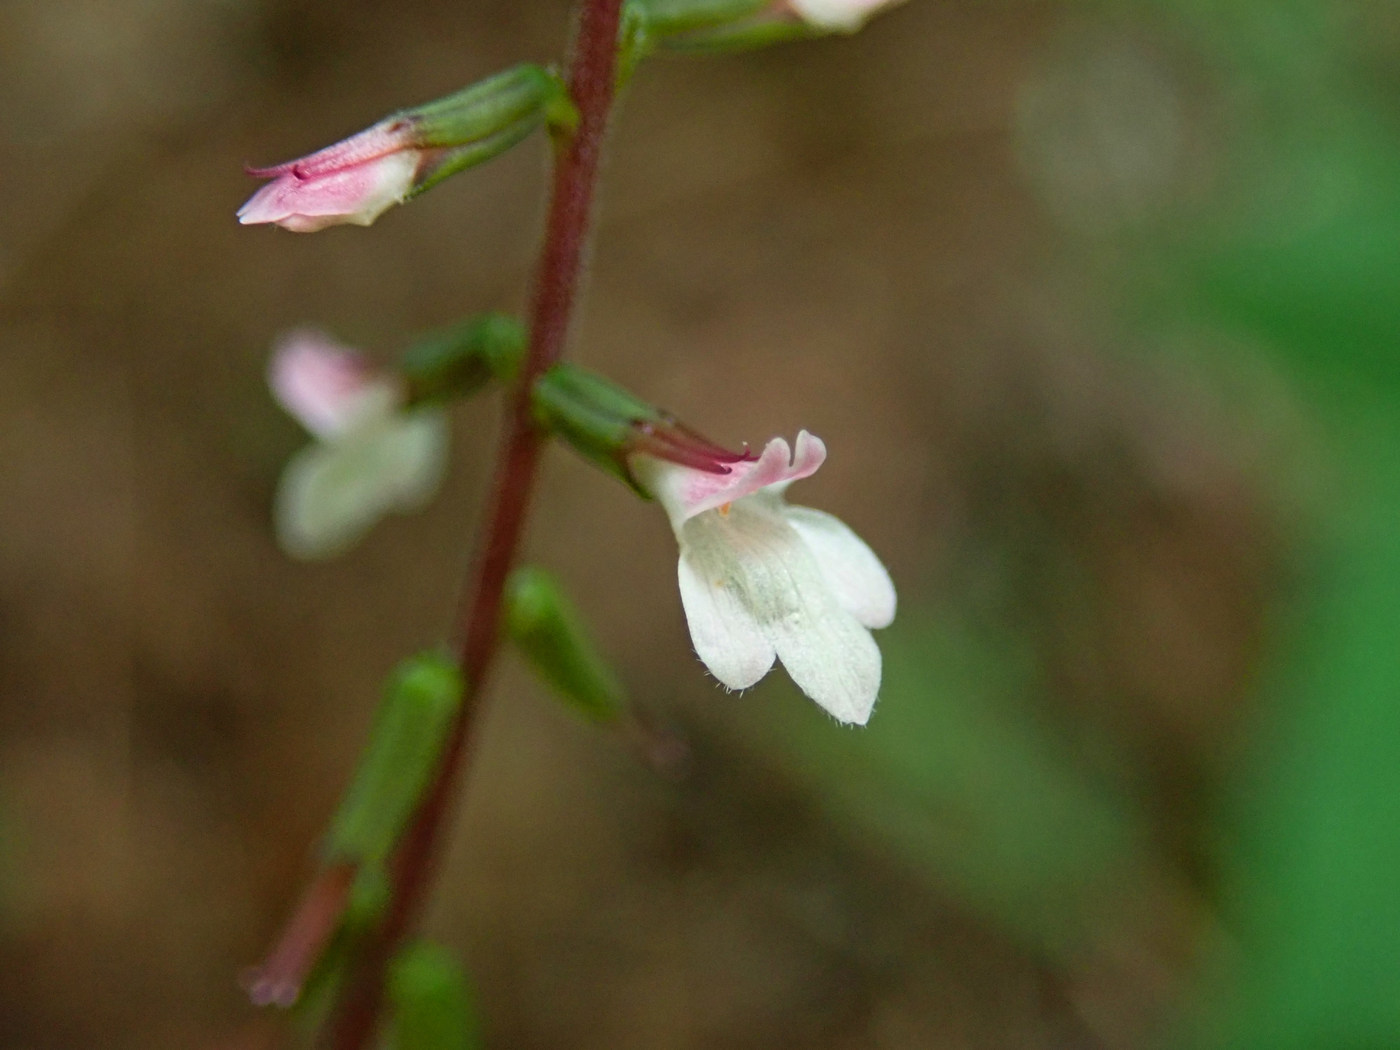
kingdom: Plantae
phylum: Tracheophyta
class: Magnoliopsida
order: Lamiales
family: Phrymaceae
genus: Phryma
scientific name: Phryma leptostachya
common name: American lopseed
